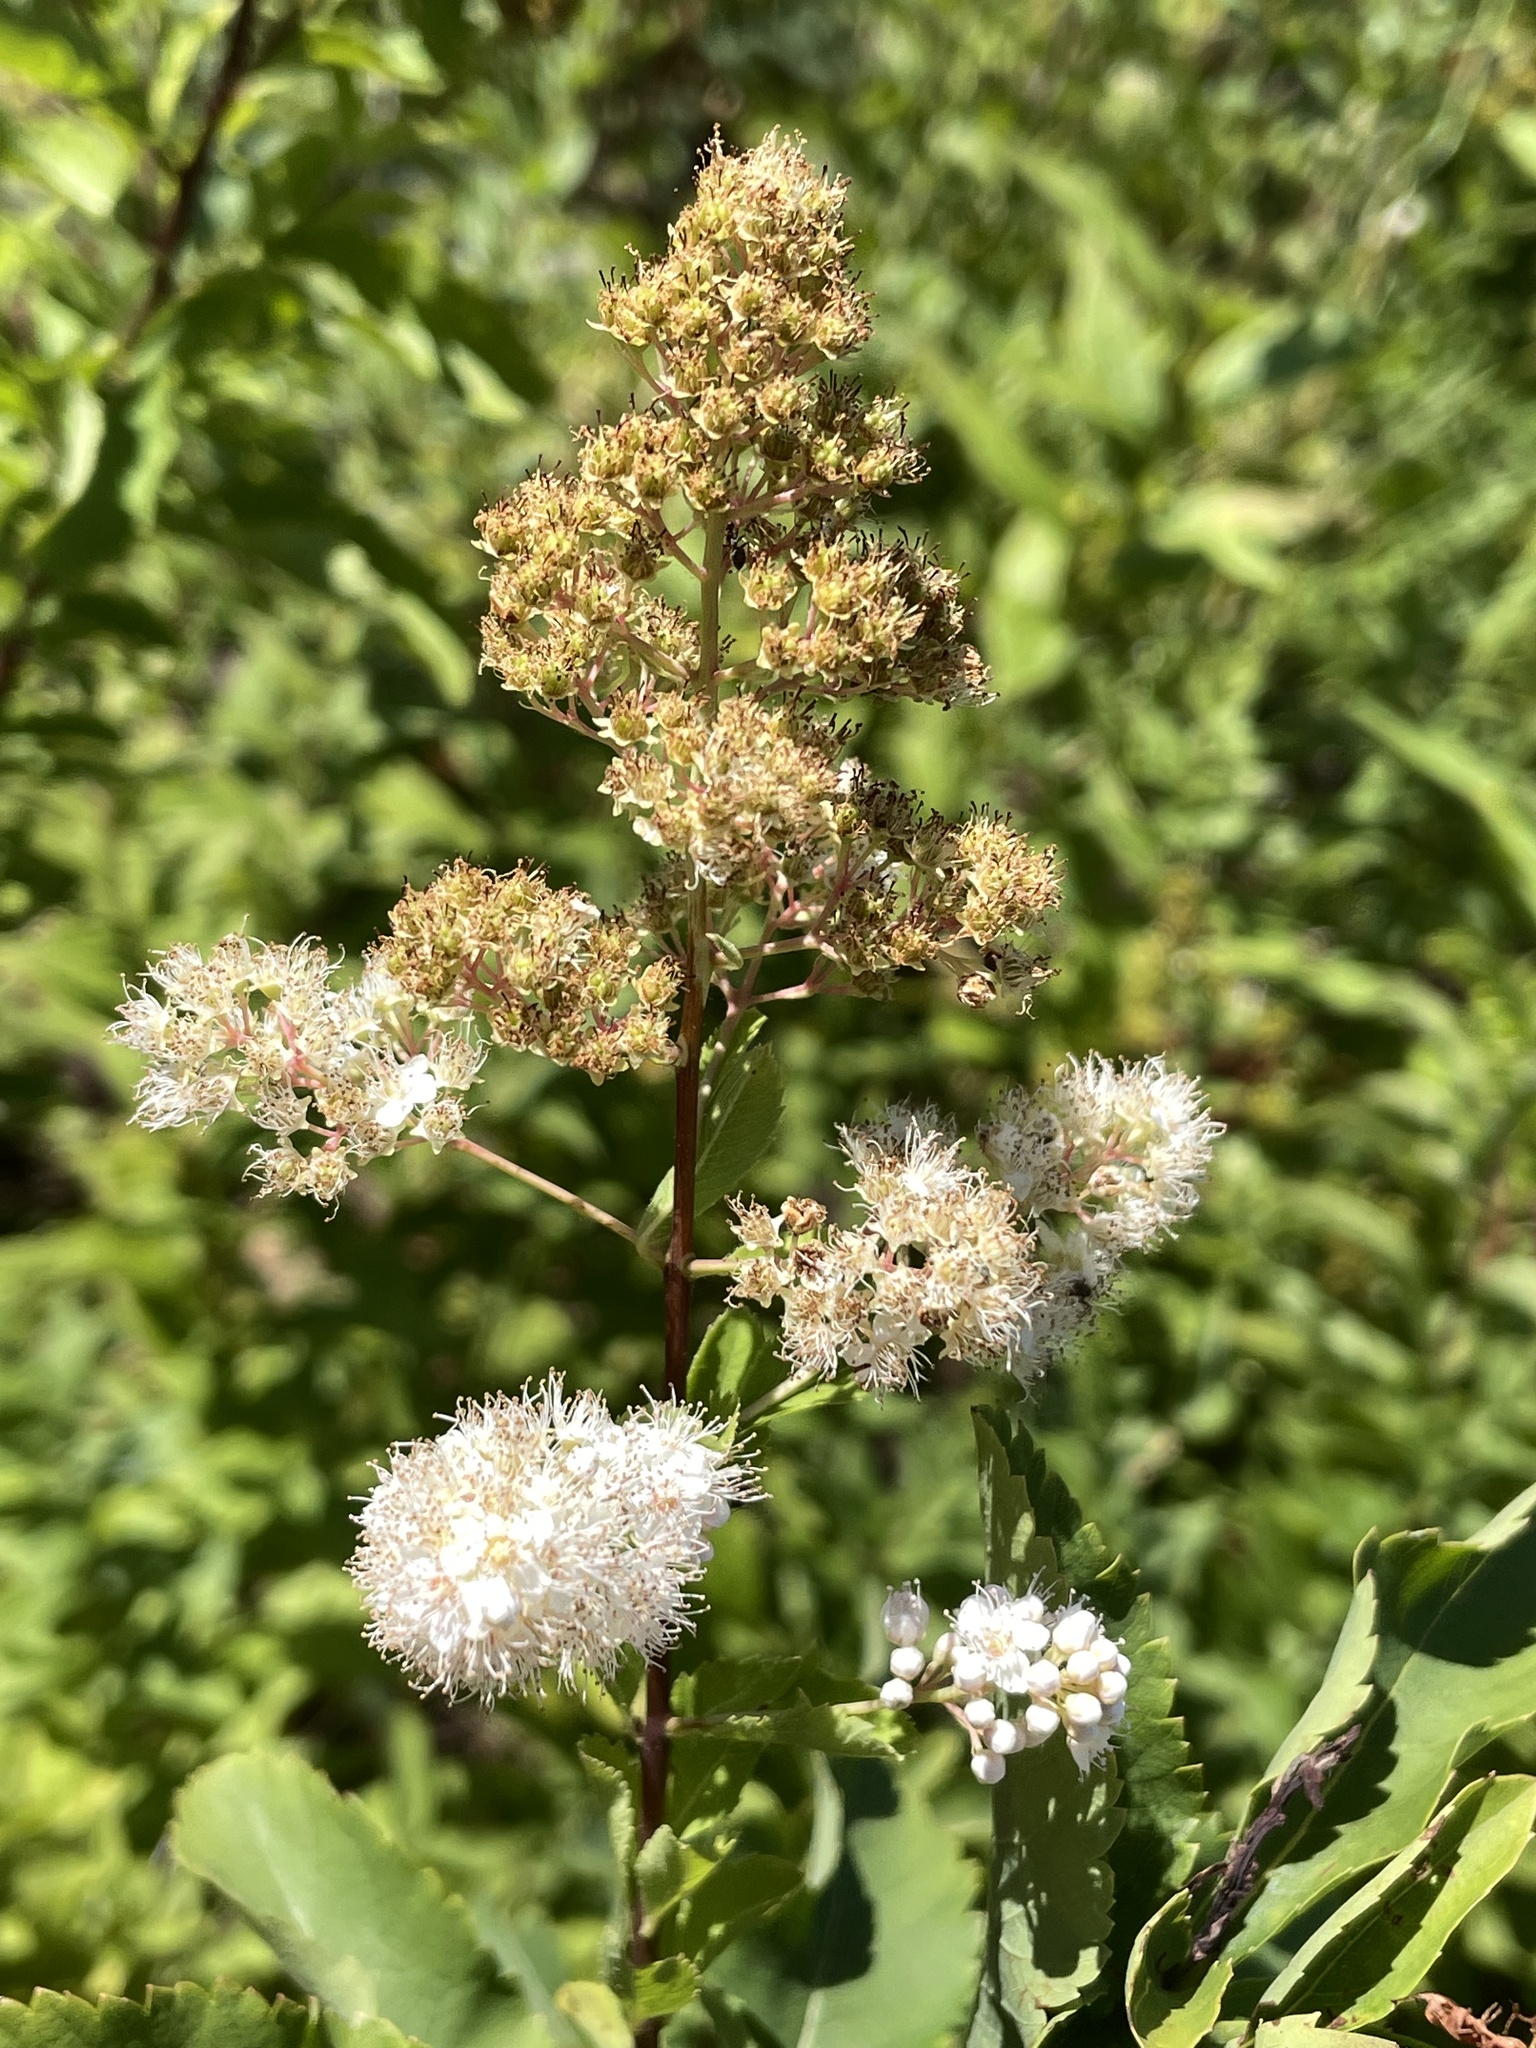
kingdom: Plantae
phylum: Tracheophyta
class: Magnoliopsida
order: Rosales
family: Rosaceae
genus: Spiraea
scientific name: Spiraea alba
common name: Pale bridewort
